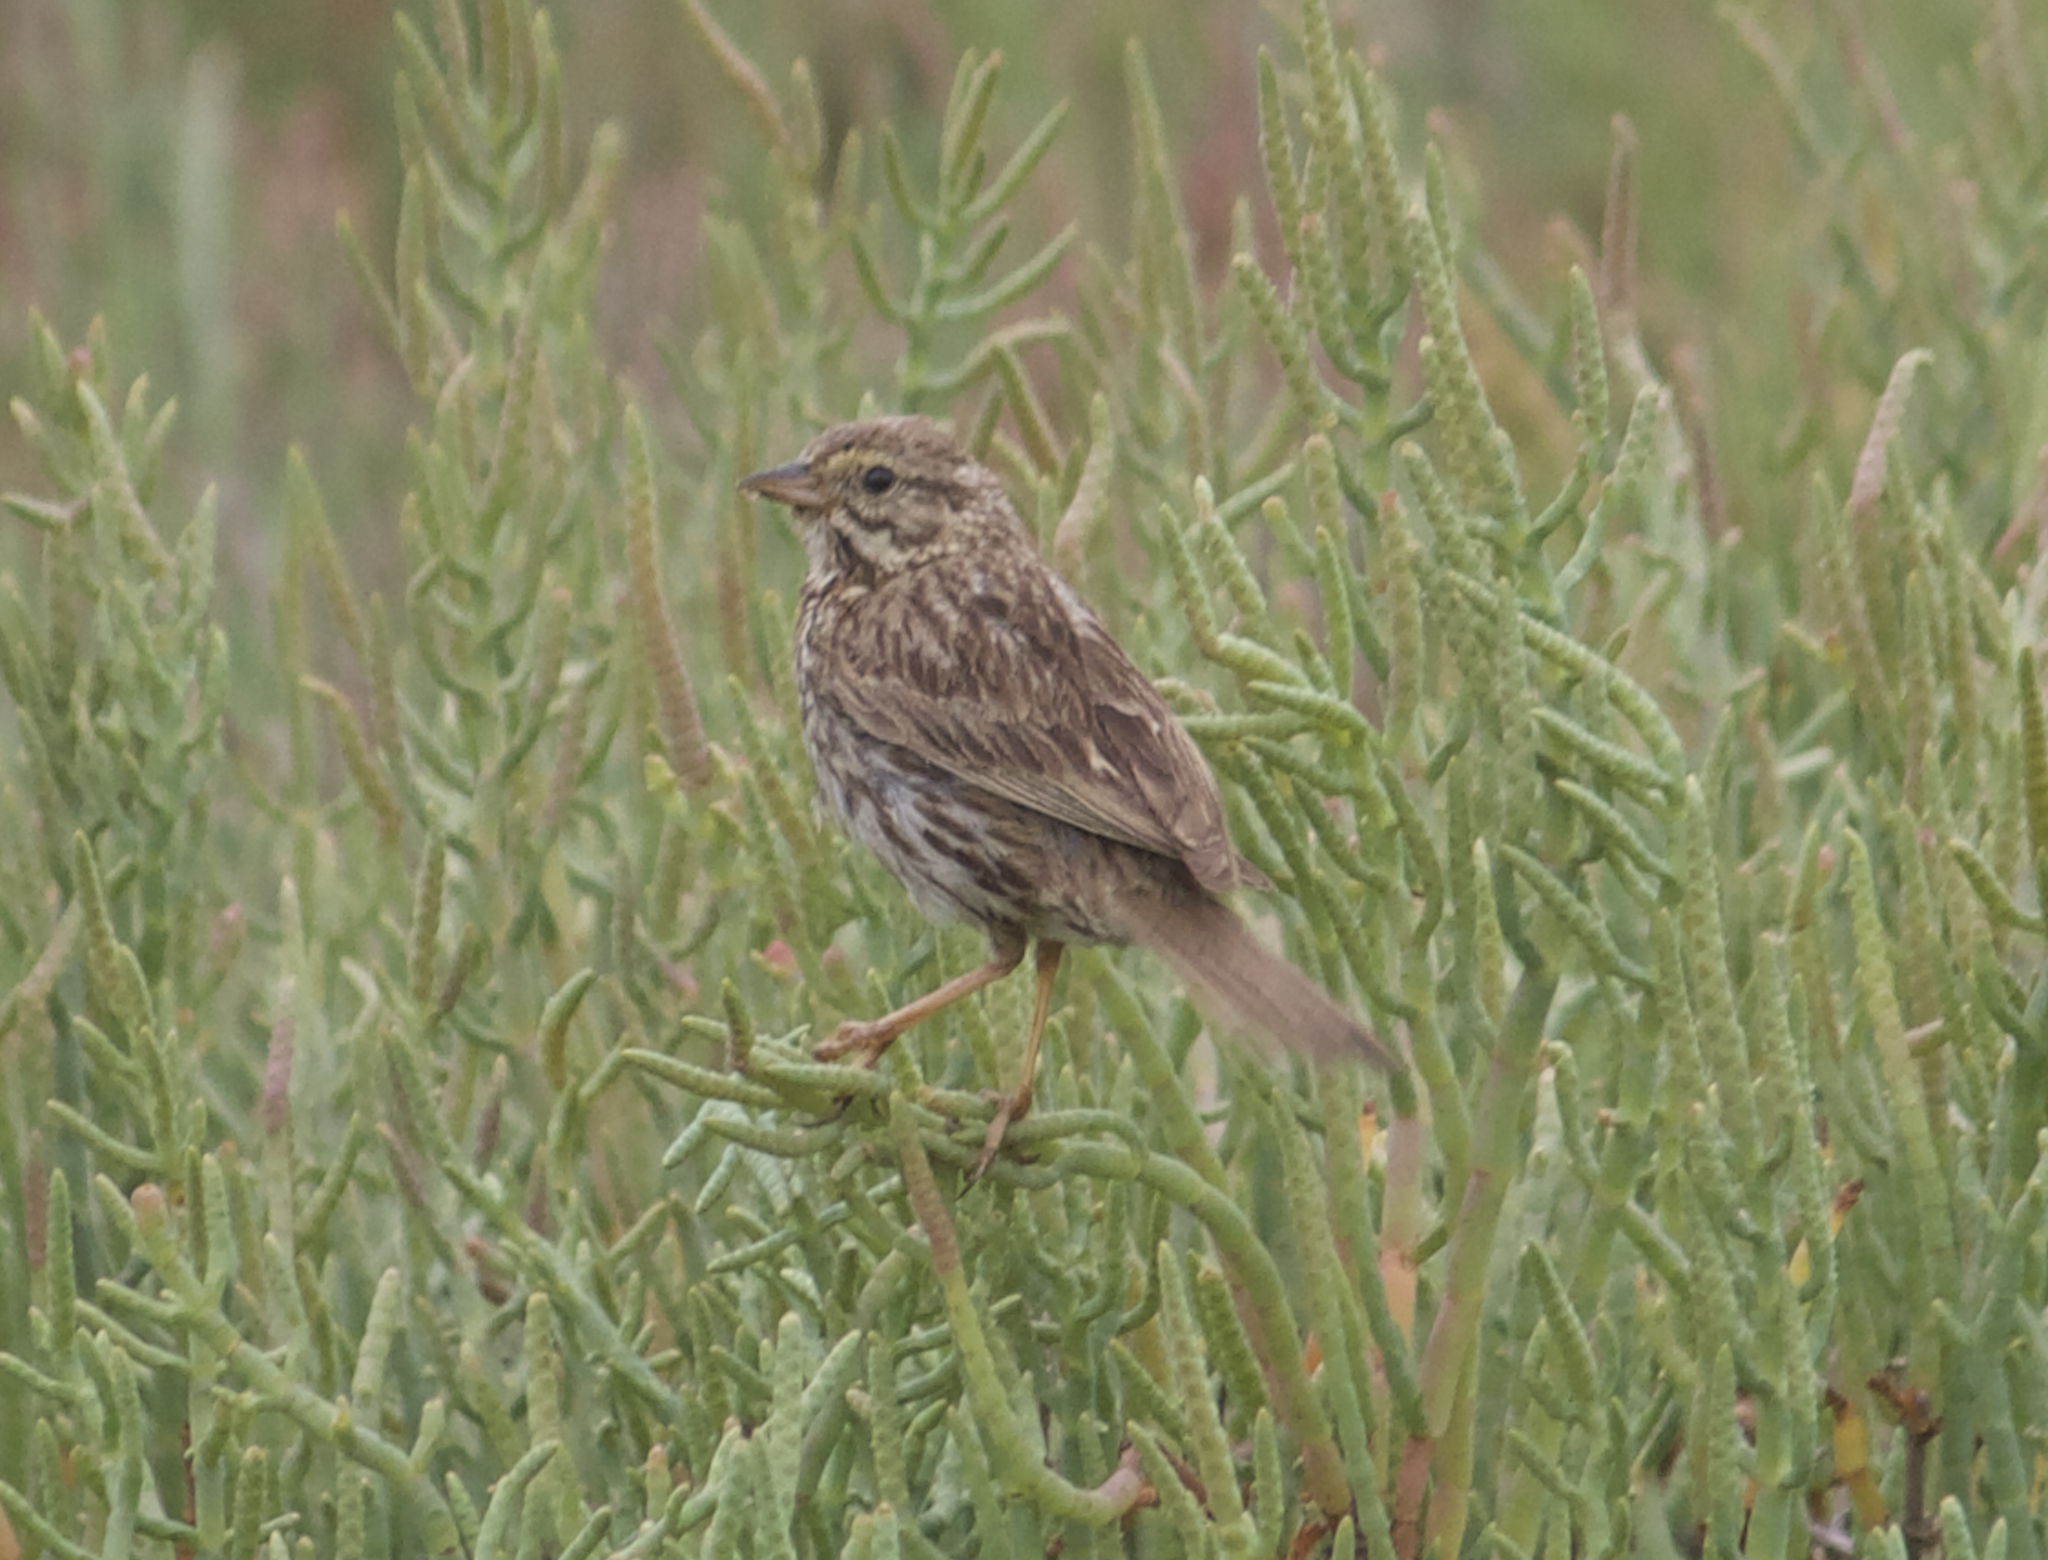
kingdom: Animalia
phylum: Chordata
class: Aves
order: Passeriformes
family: Passerellidae
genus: Passerculus
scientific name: Passerculus sandwichensis
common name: Savannah sparrow
